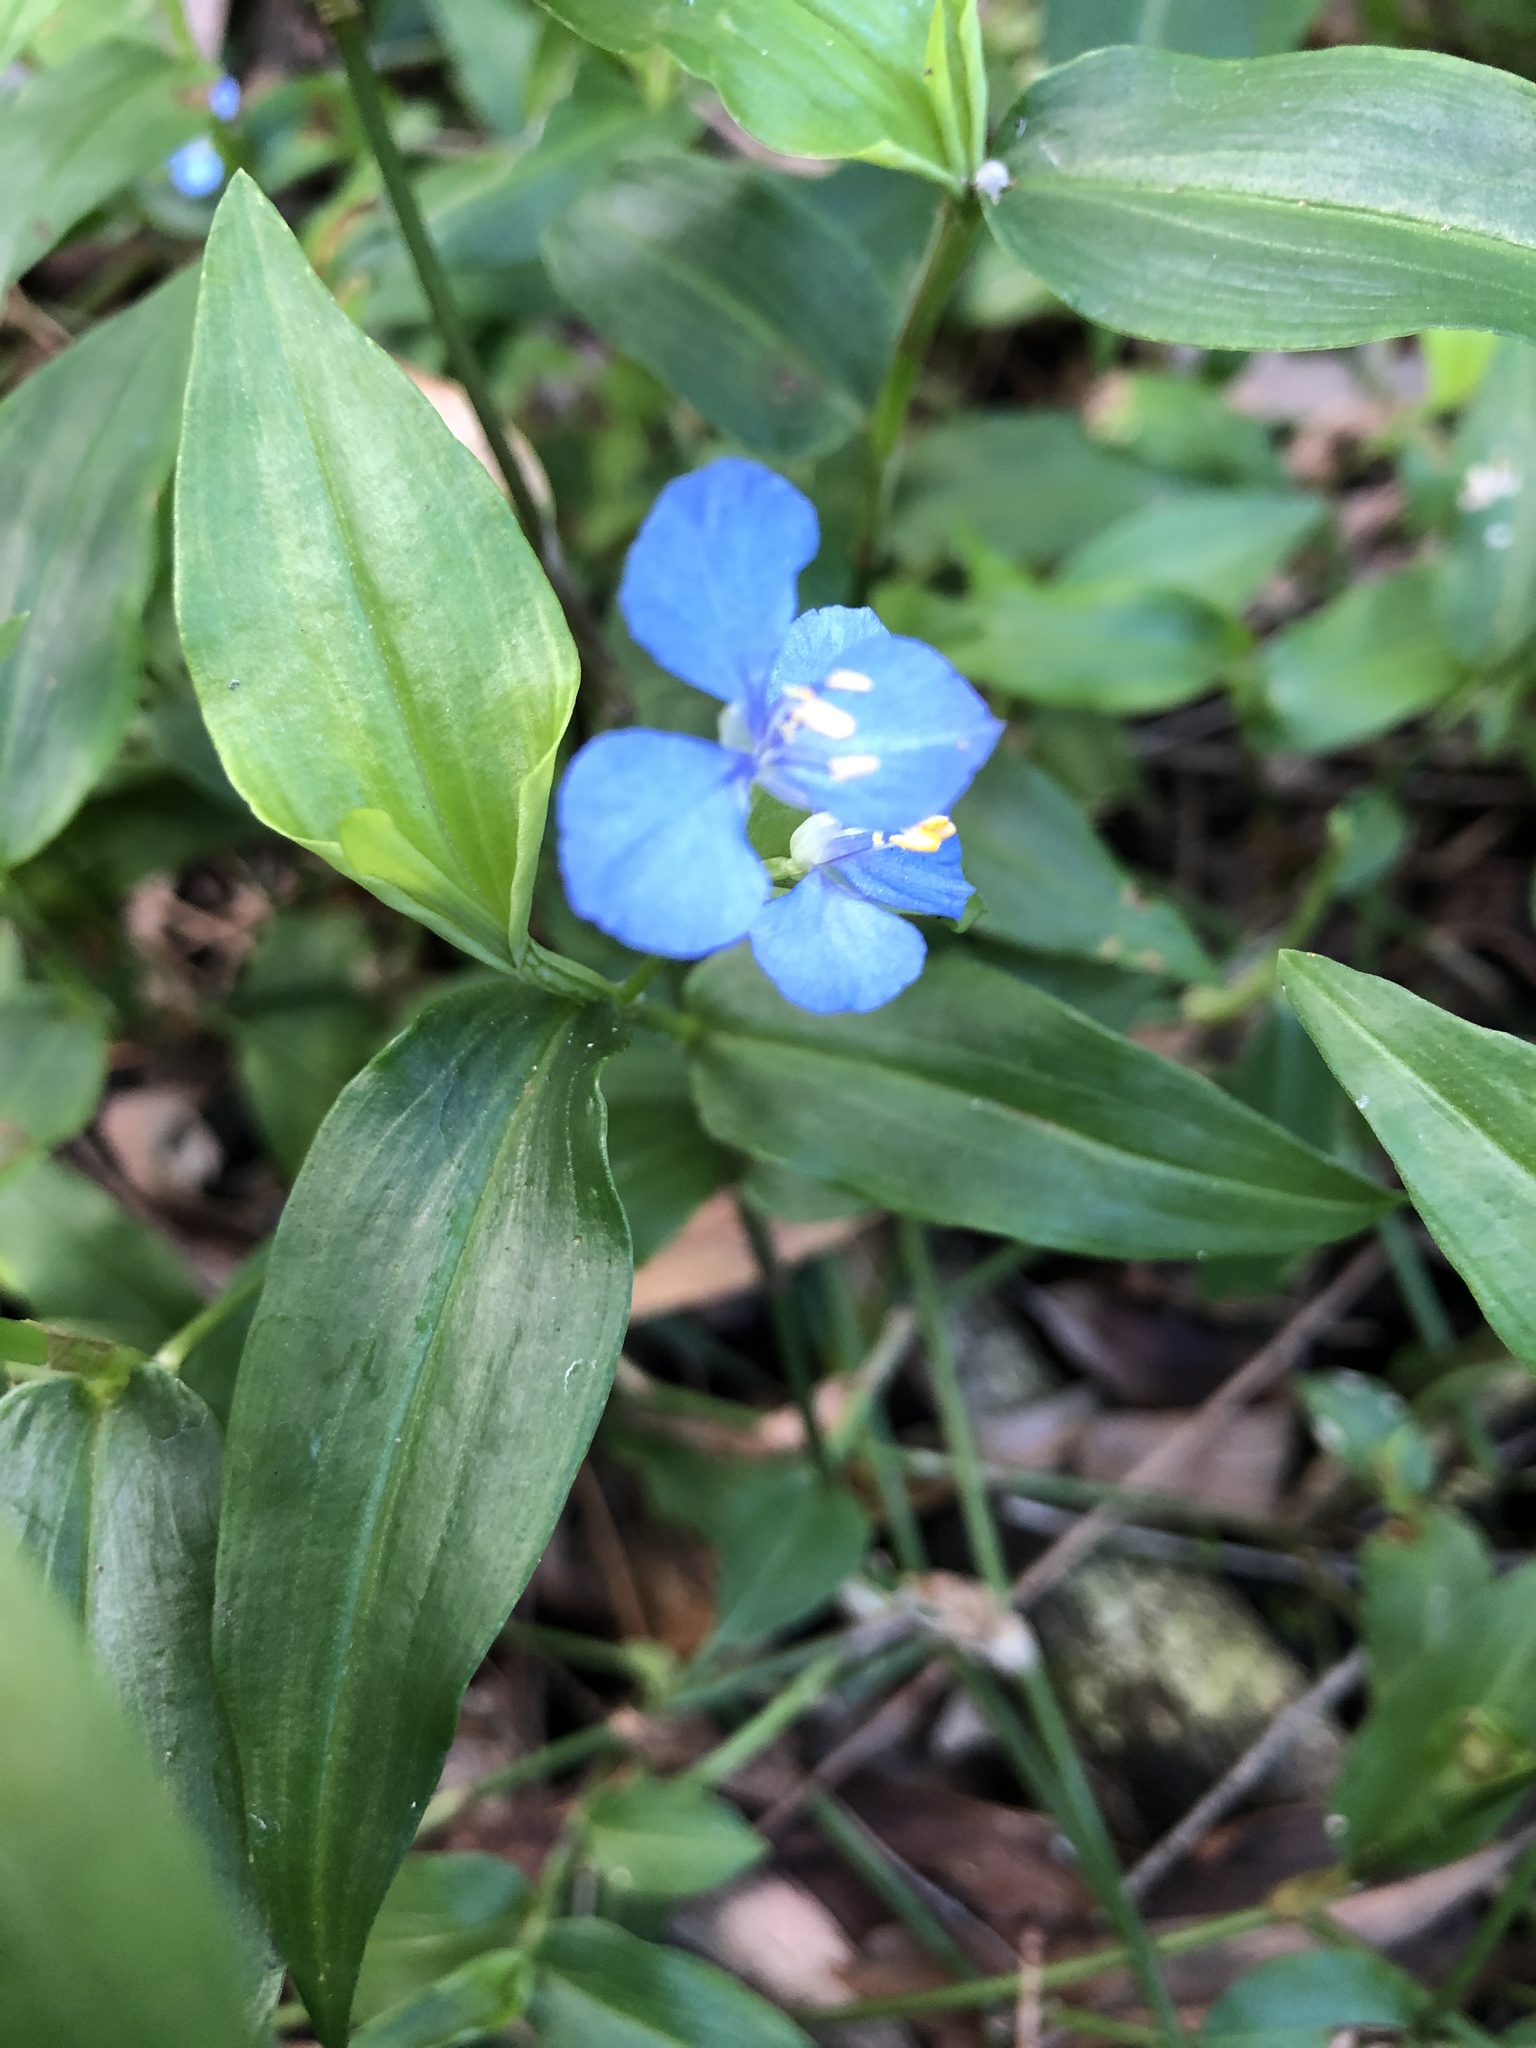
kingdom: Plantae
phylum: Tracheophyta
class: Liliopsida
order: Commelinales
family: Commelinaceae
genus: Commelina
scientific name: Commelina cyanea
